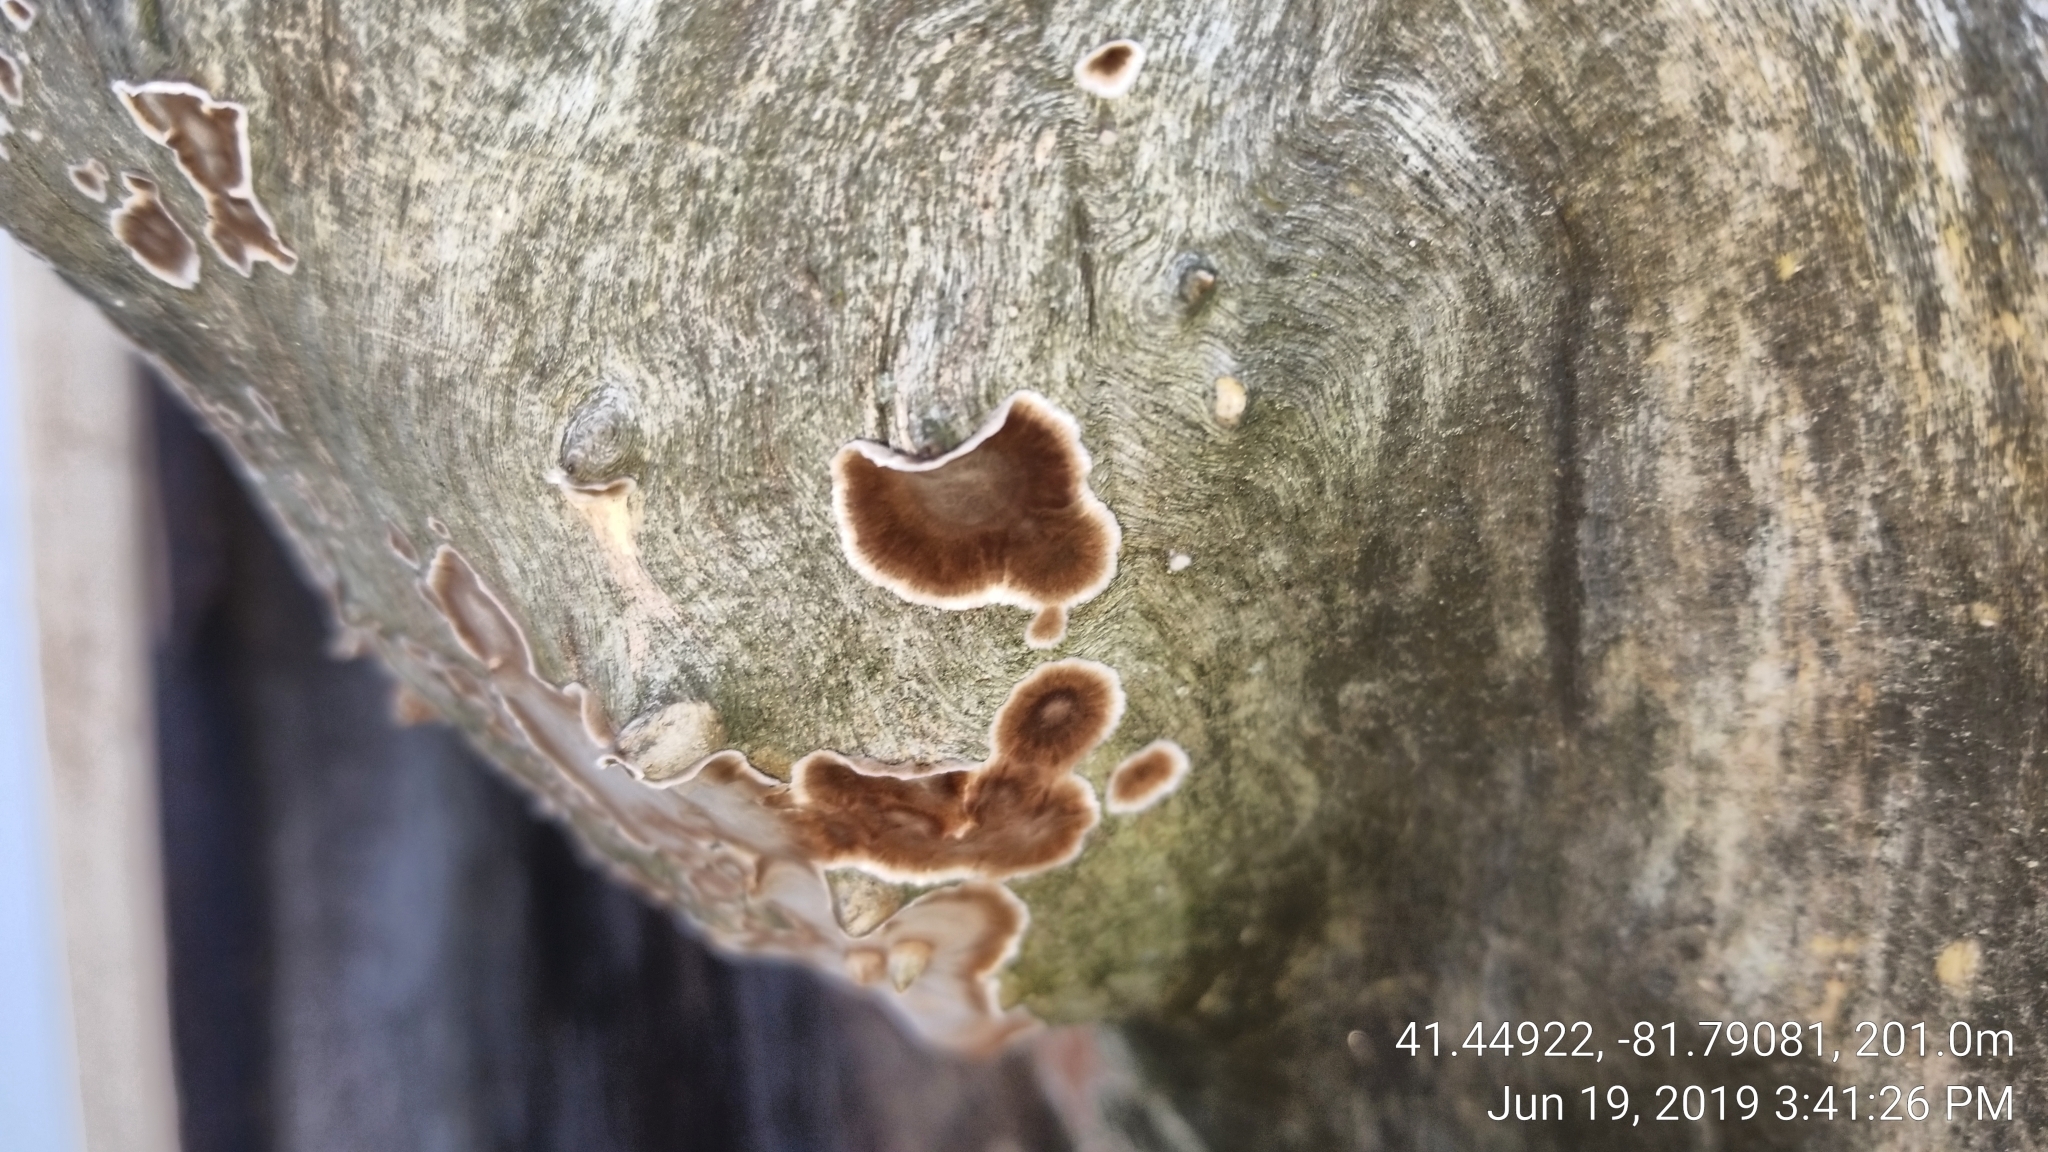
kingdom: Fungi
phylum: Basidiomycota
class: Agaricomycetes
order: Russulales
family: Peniophoraceae
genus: Peniophora
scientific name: Peniophora albobadia
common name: Giraffe spots
